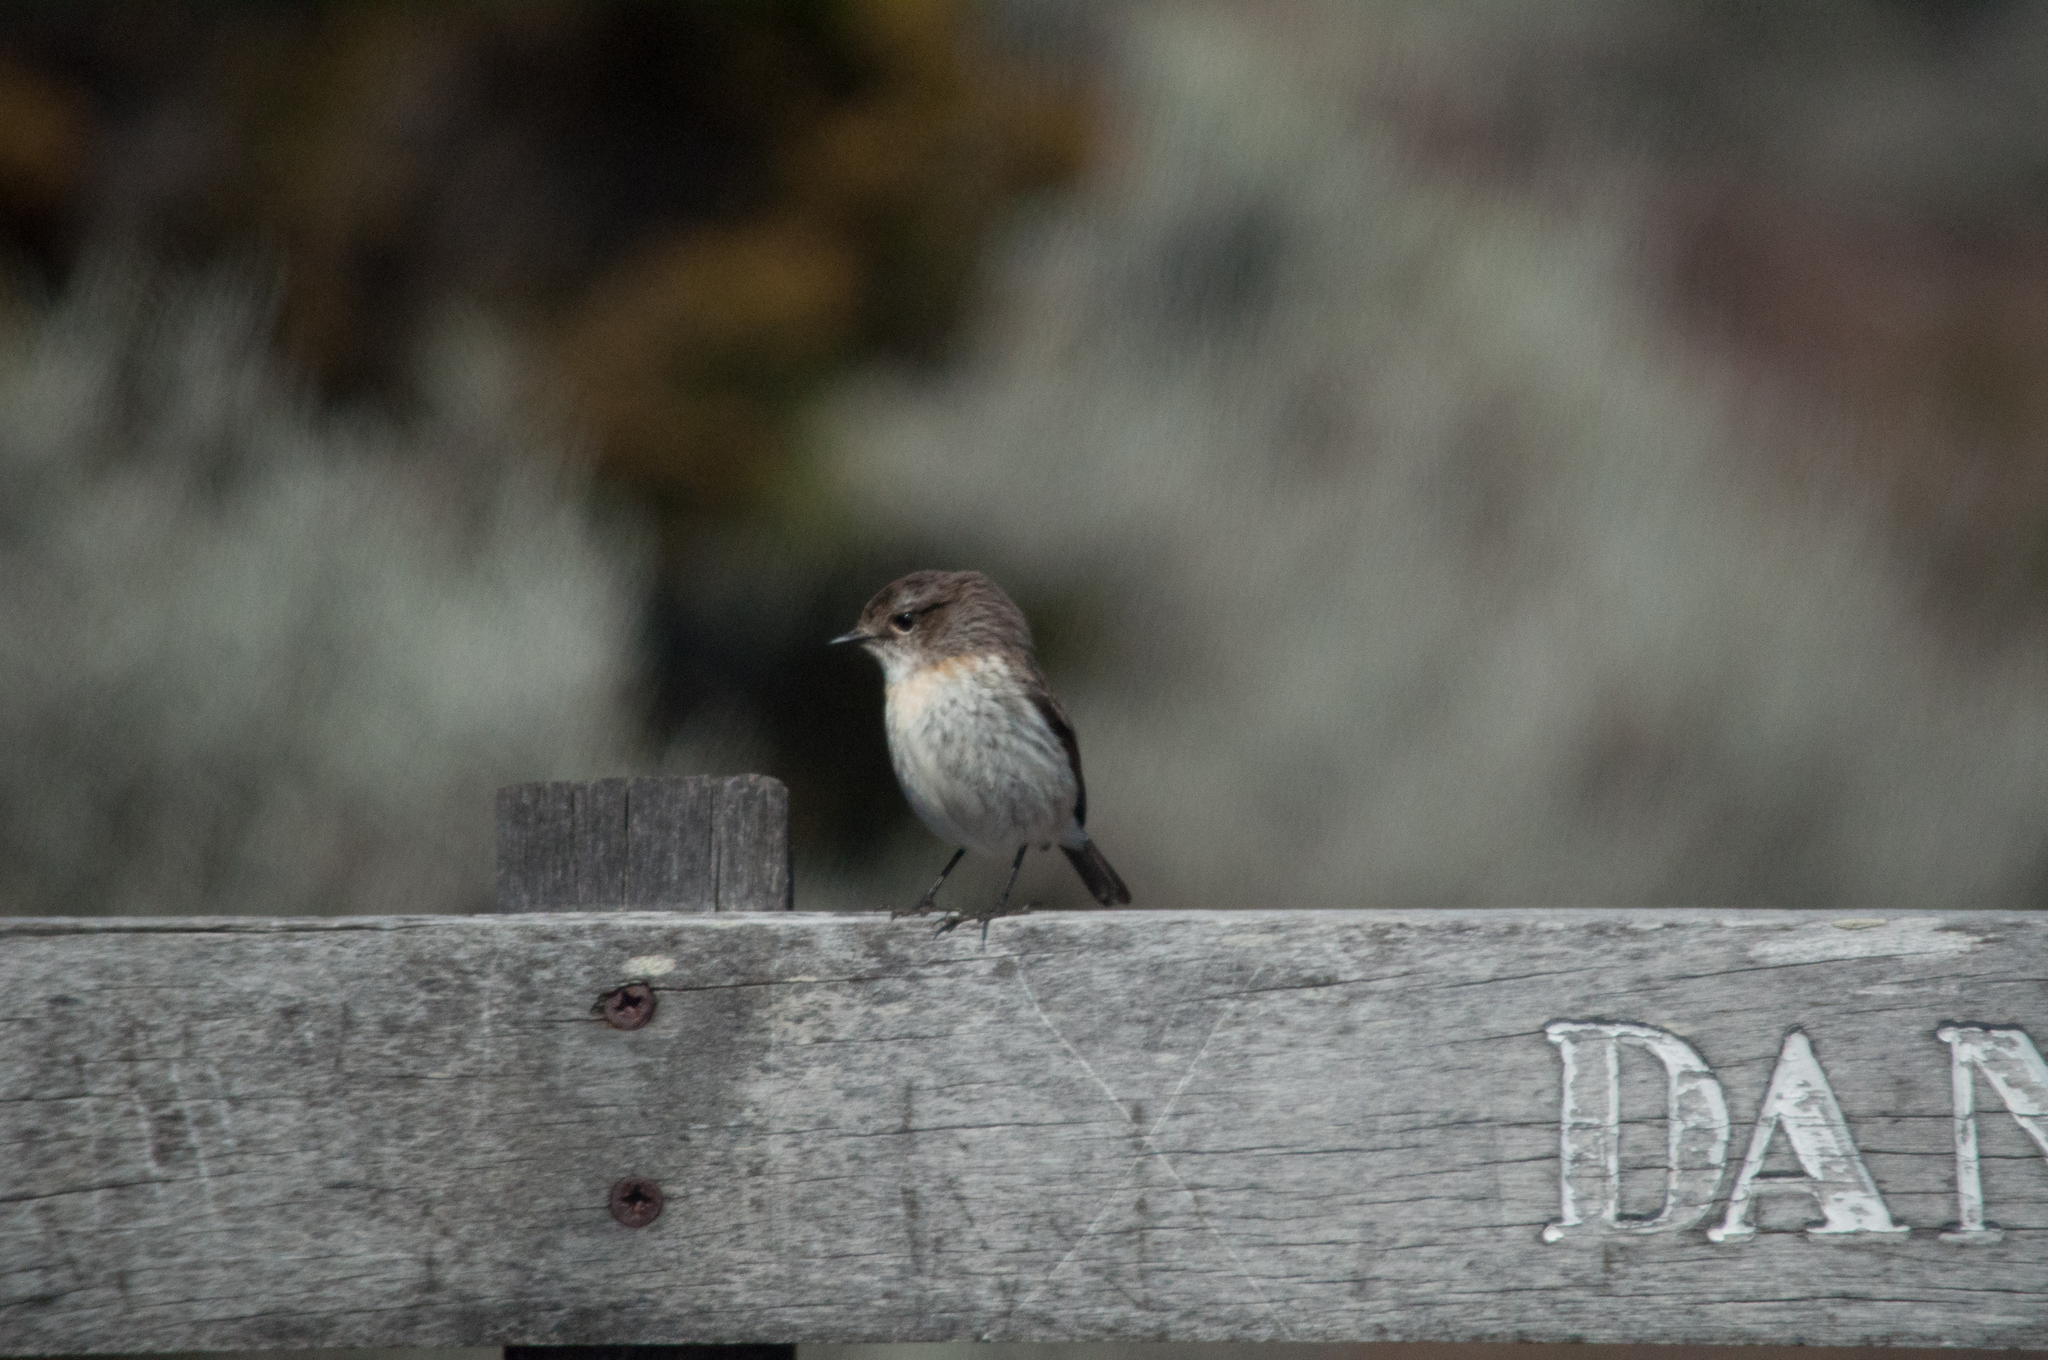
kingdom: Animalia
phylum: Chordata
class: Aves
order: Passeriformes
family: Muscicapidae
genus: Saxicola
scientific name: Saxicola tectes
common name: Reunion stonechat
